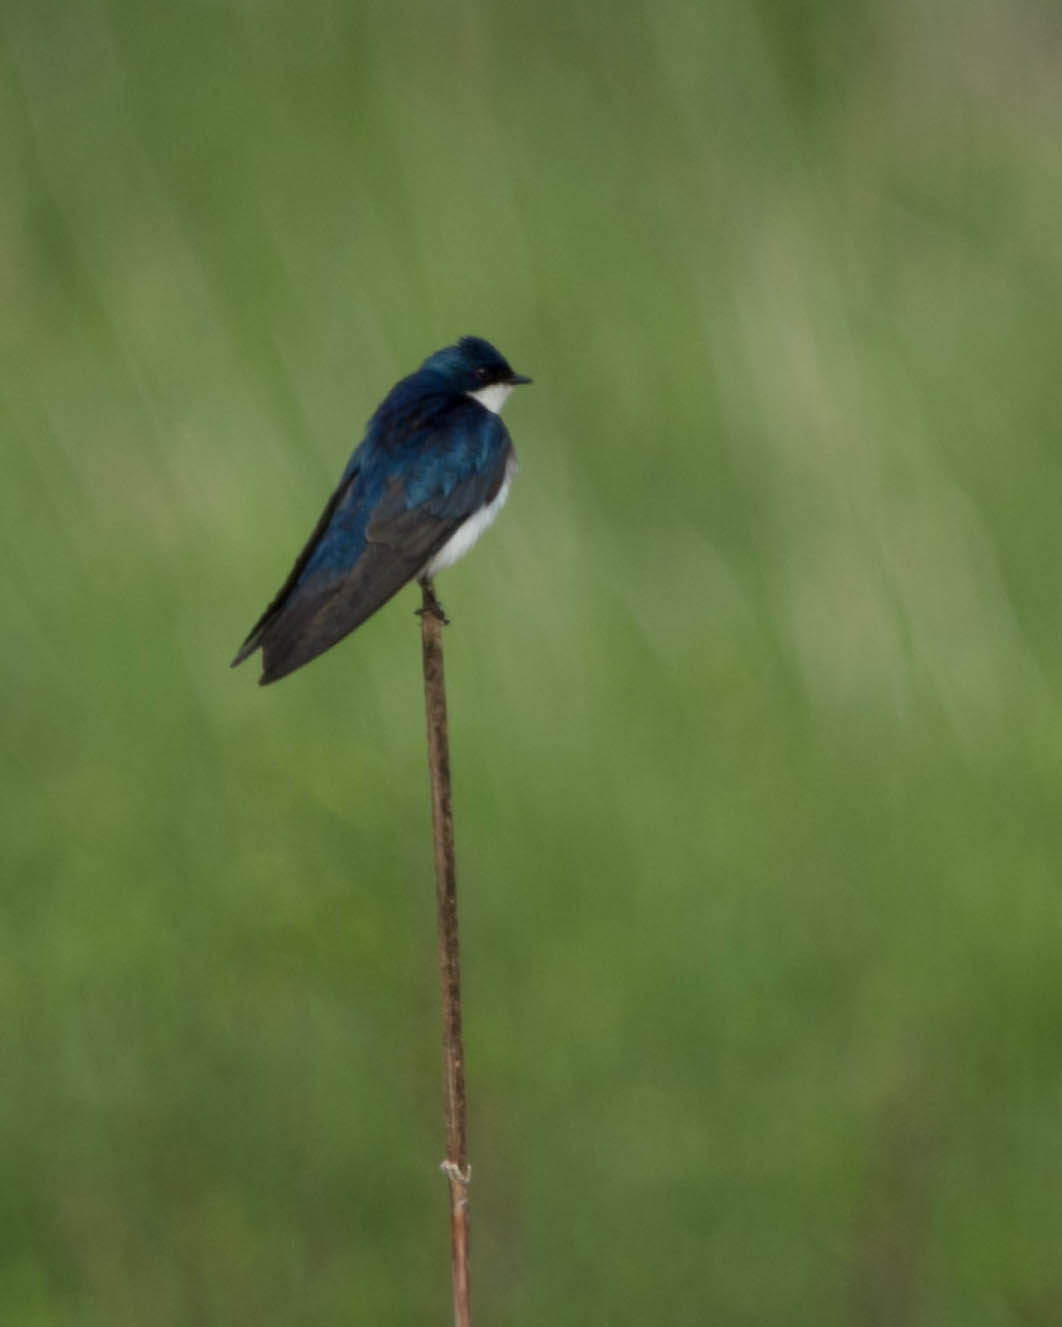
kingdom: Animalia
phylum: Chordata
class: Aves
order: Passeriformes
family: Hirundinidae
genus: Tachycineta
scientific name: Tachycineta bicolor
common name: Tree swallow
